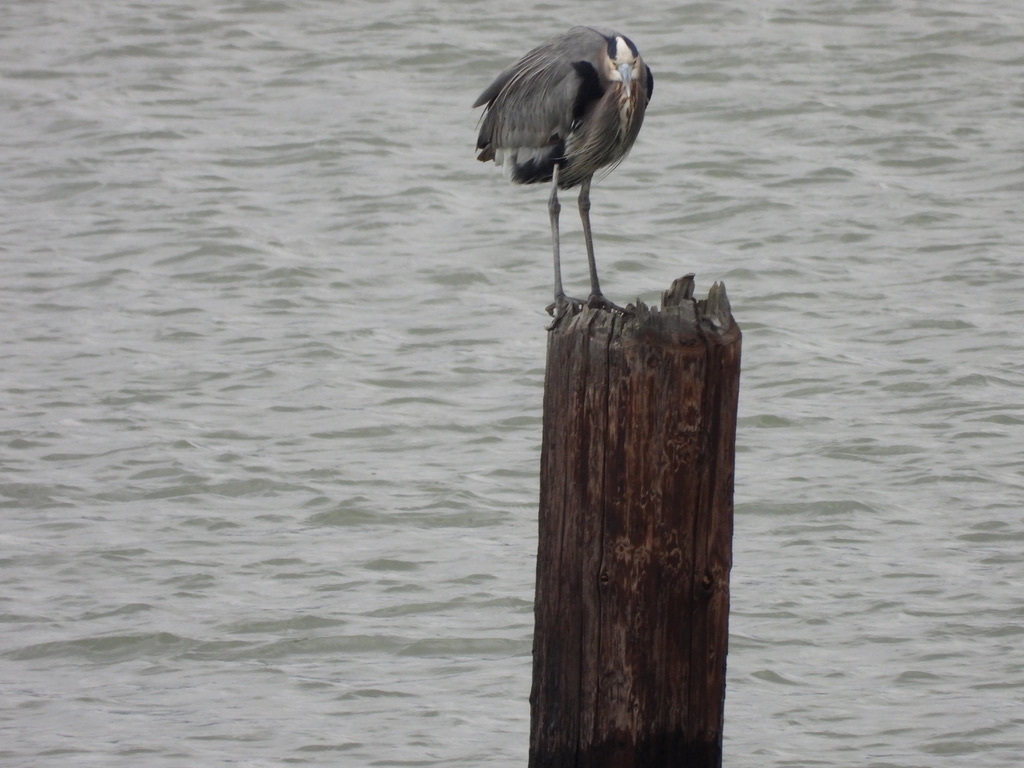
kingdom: Animalia
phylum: Chordata
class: Aves
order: Pelecaniformes
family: Ardeidae
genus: Ardea
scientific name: Ardea herodias
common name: Great blue heron
